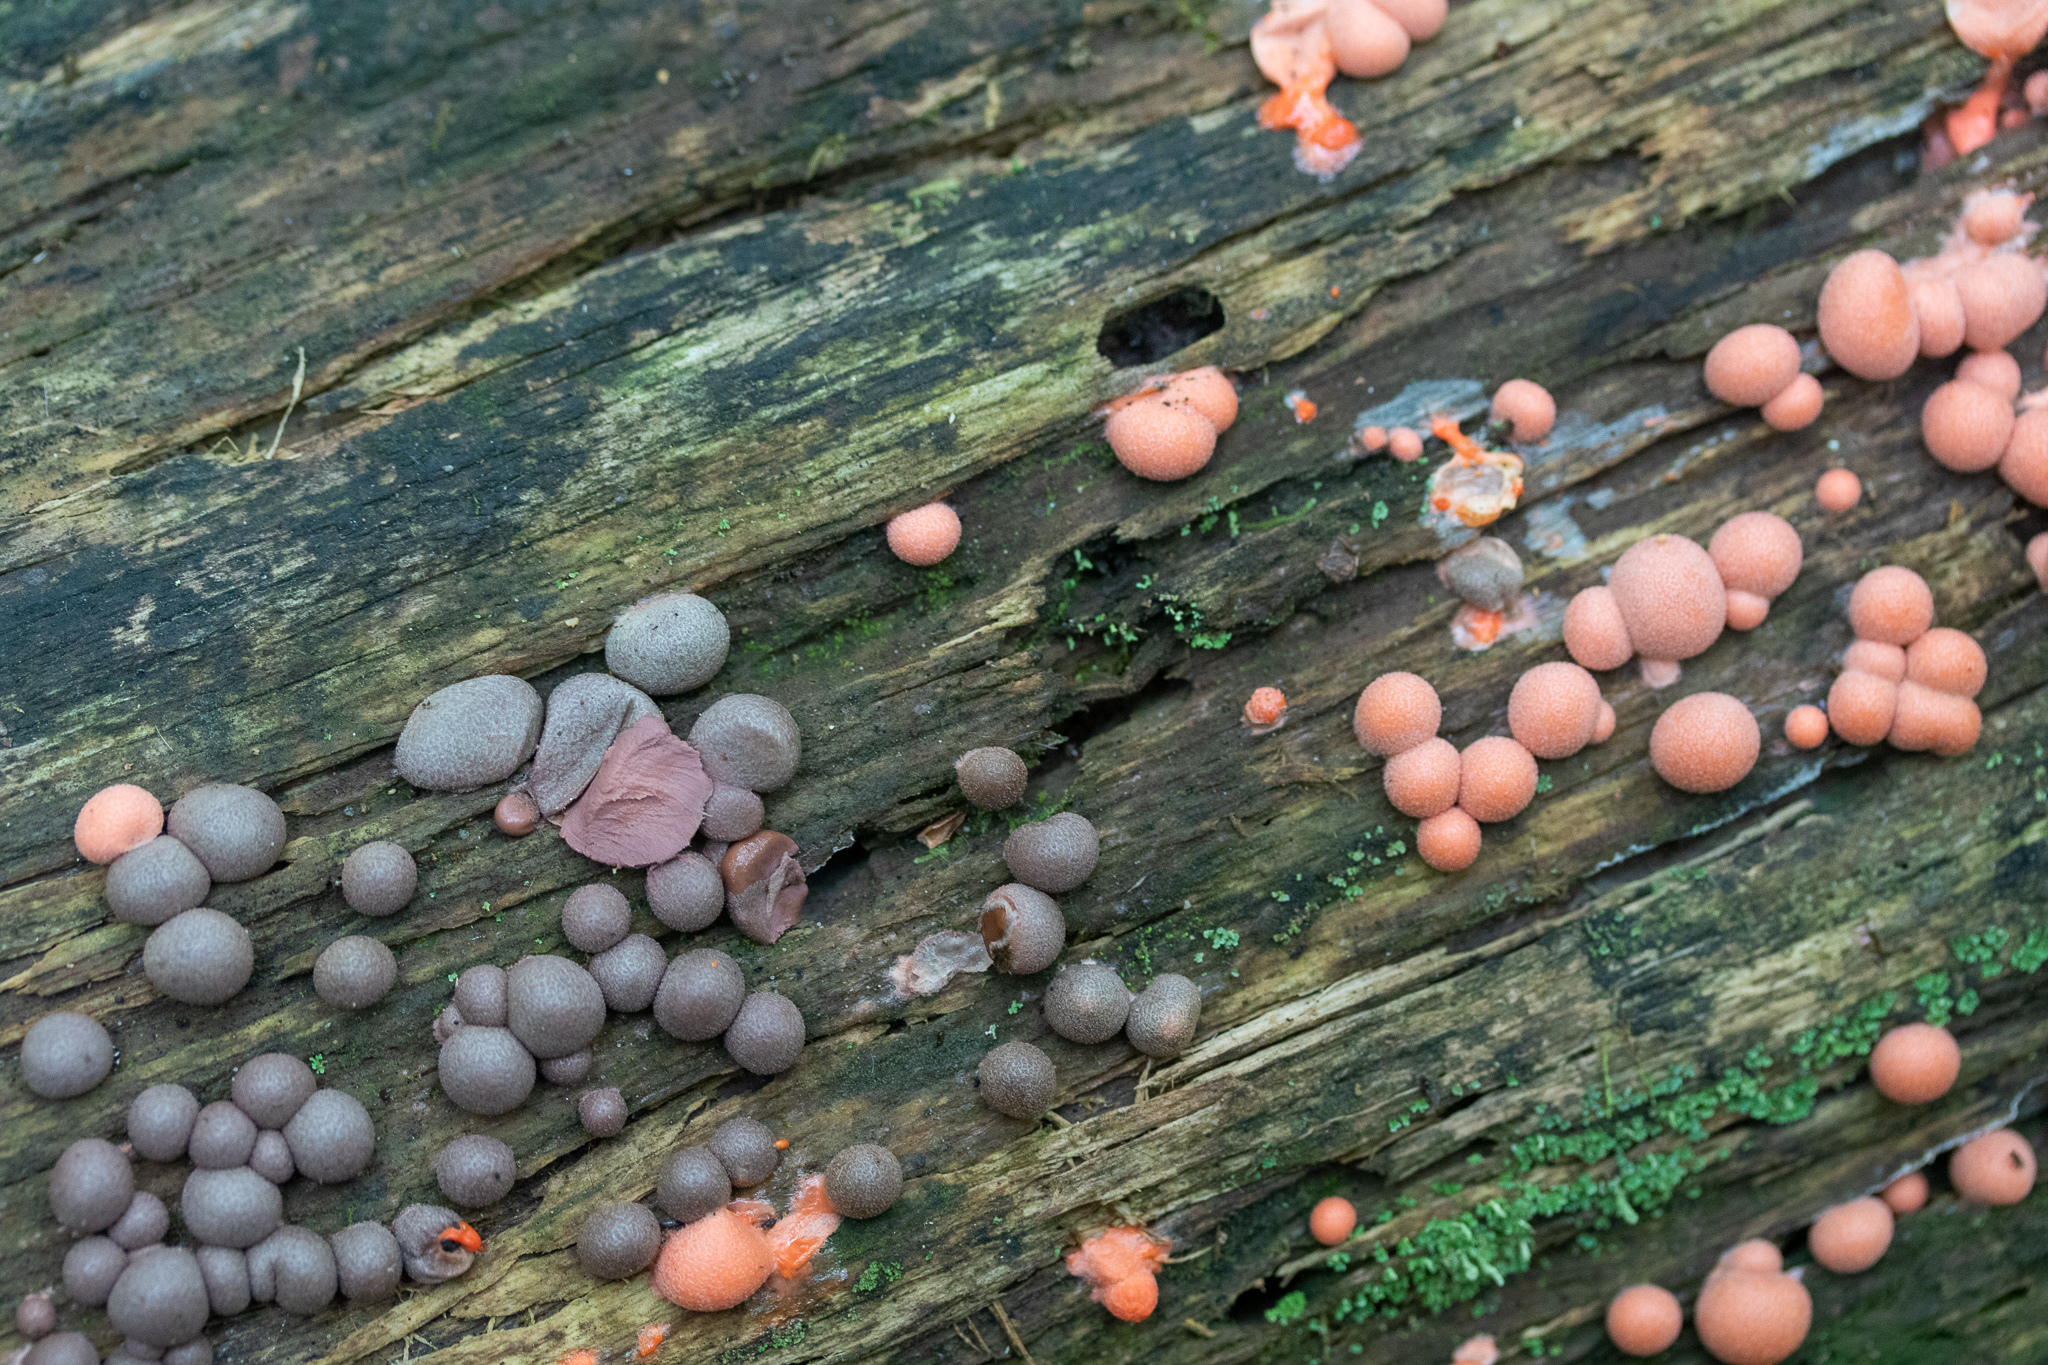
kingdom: Protozoa
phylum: Mycetozoa
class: Myxomycetes
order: Cribrariales
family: Tubiferaceae
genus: Lycogala
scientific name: Lycogala epidendrum
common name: Wolf's milk
